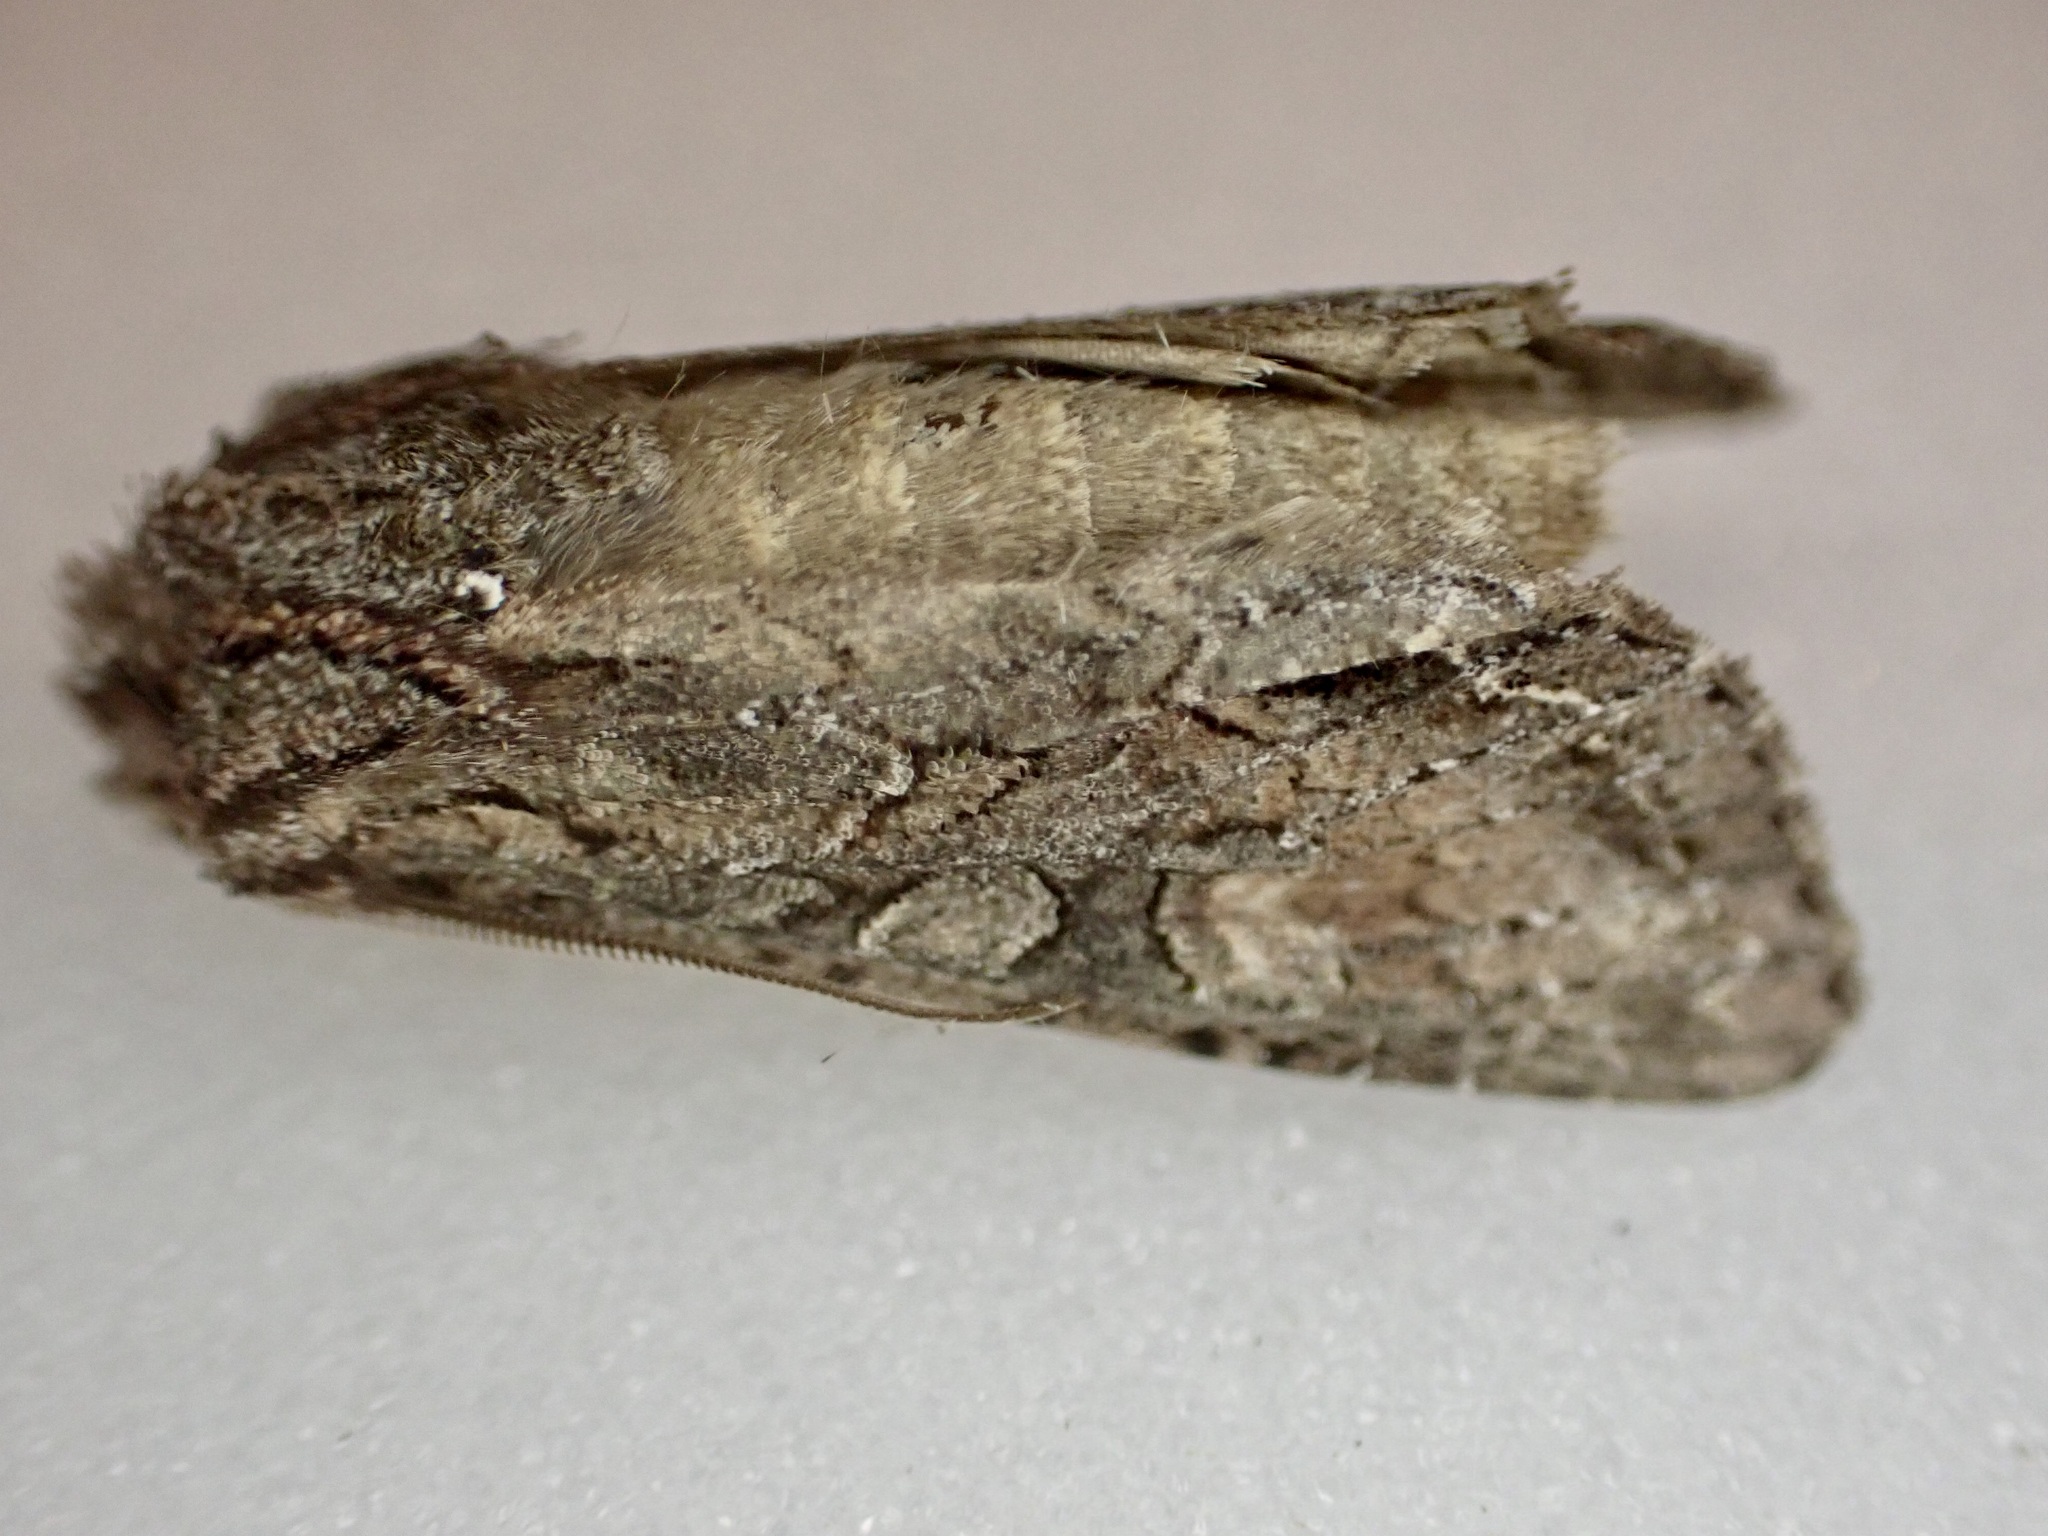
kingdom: Animalia
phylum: Arthropoda
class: Insecta
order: Lepidoptera
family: Noctuidae
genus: Ichneutica
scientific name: Ichneutica mutans
